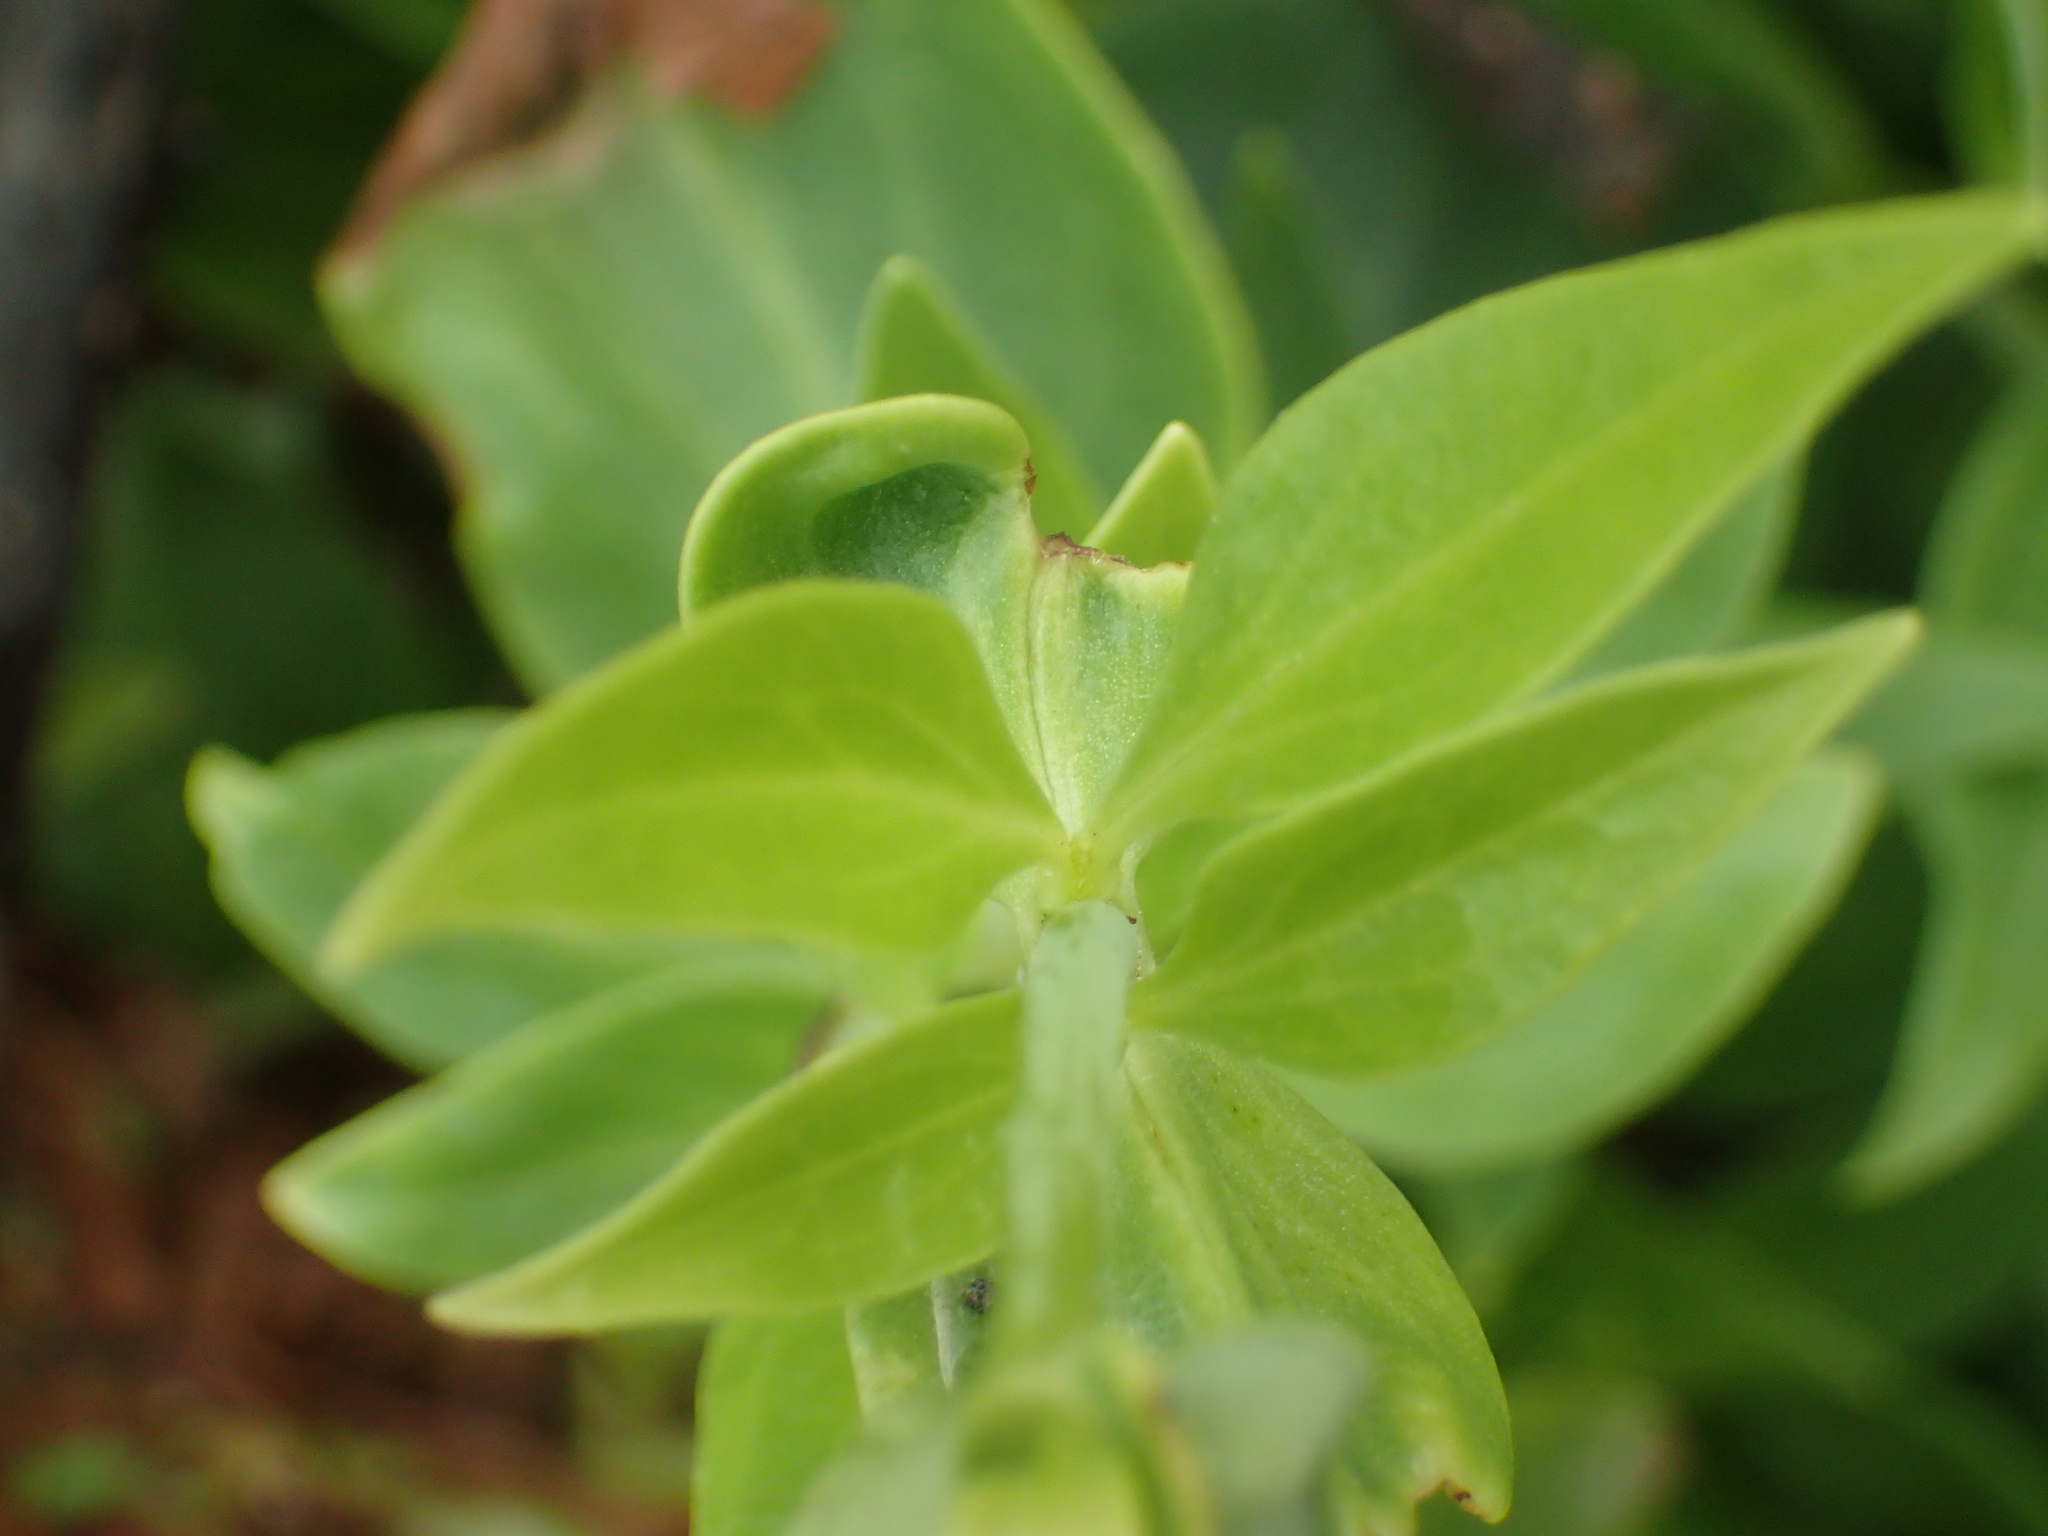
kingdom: Plantae
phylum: Tracheophyta
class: Magnoliopsida
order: Dipsacales
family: Caprifoliaceae
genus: Centranthus
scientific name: Centranthus ruber
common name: Red valerian
